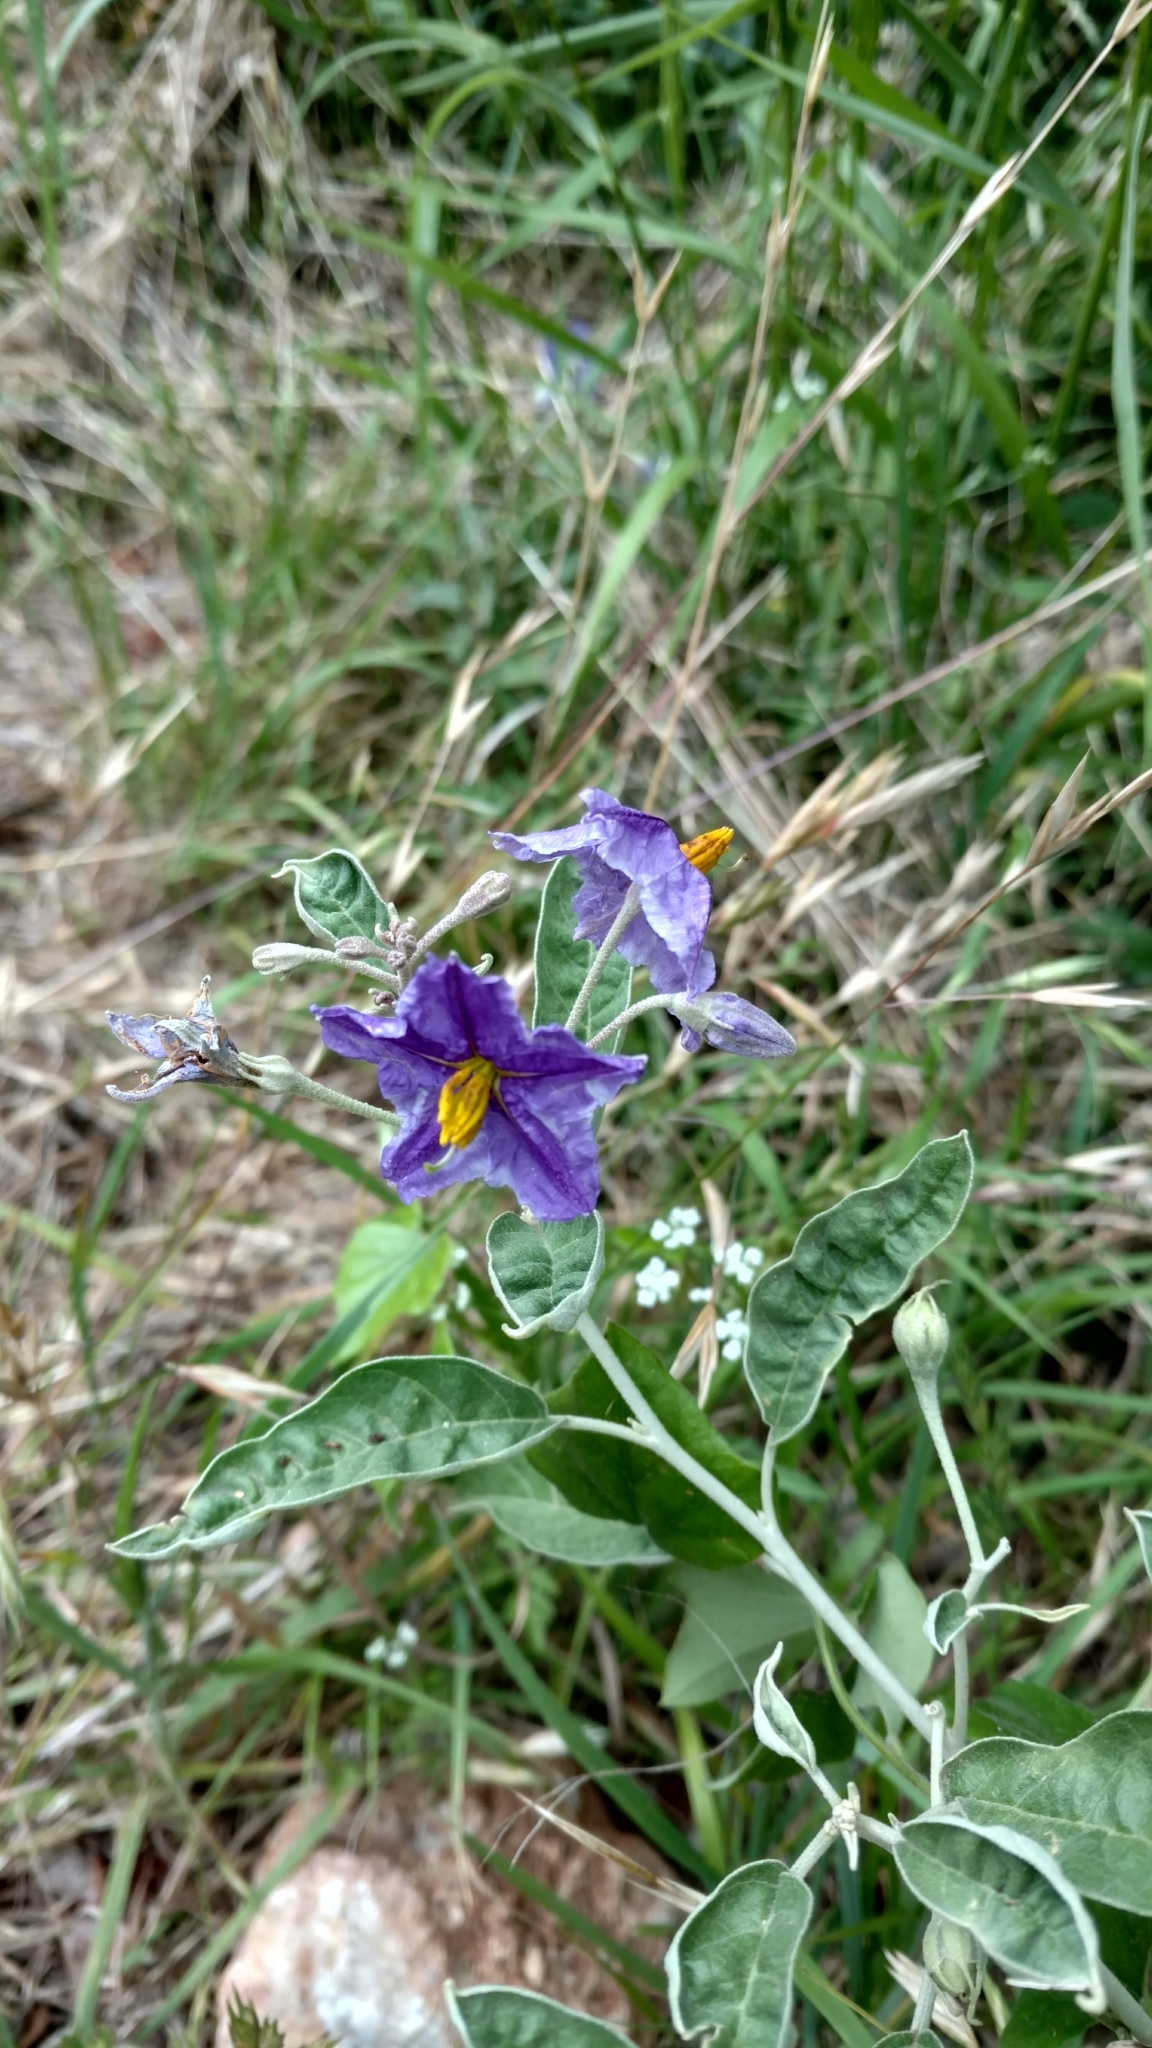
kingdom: Plantae
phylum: Tracheophyta
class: Magnoliopsida
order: Solanales
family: Solanaceae
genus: Solanum
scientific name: Solanum elaeagnifolium
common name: Silverleaf nightshade
